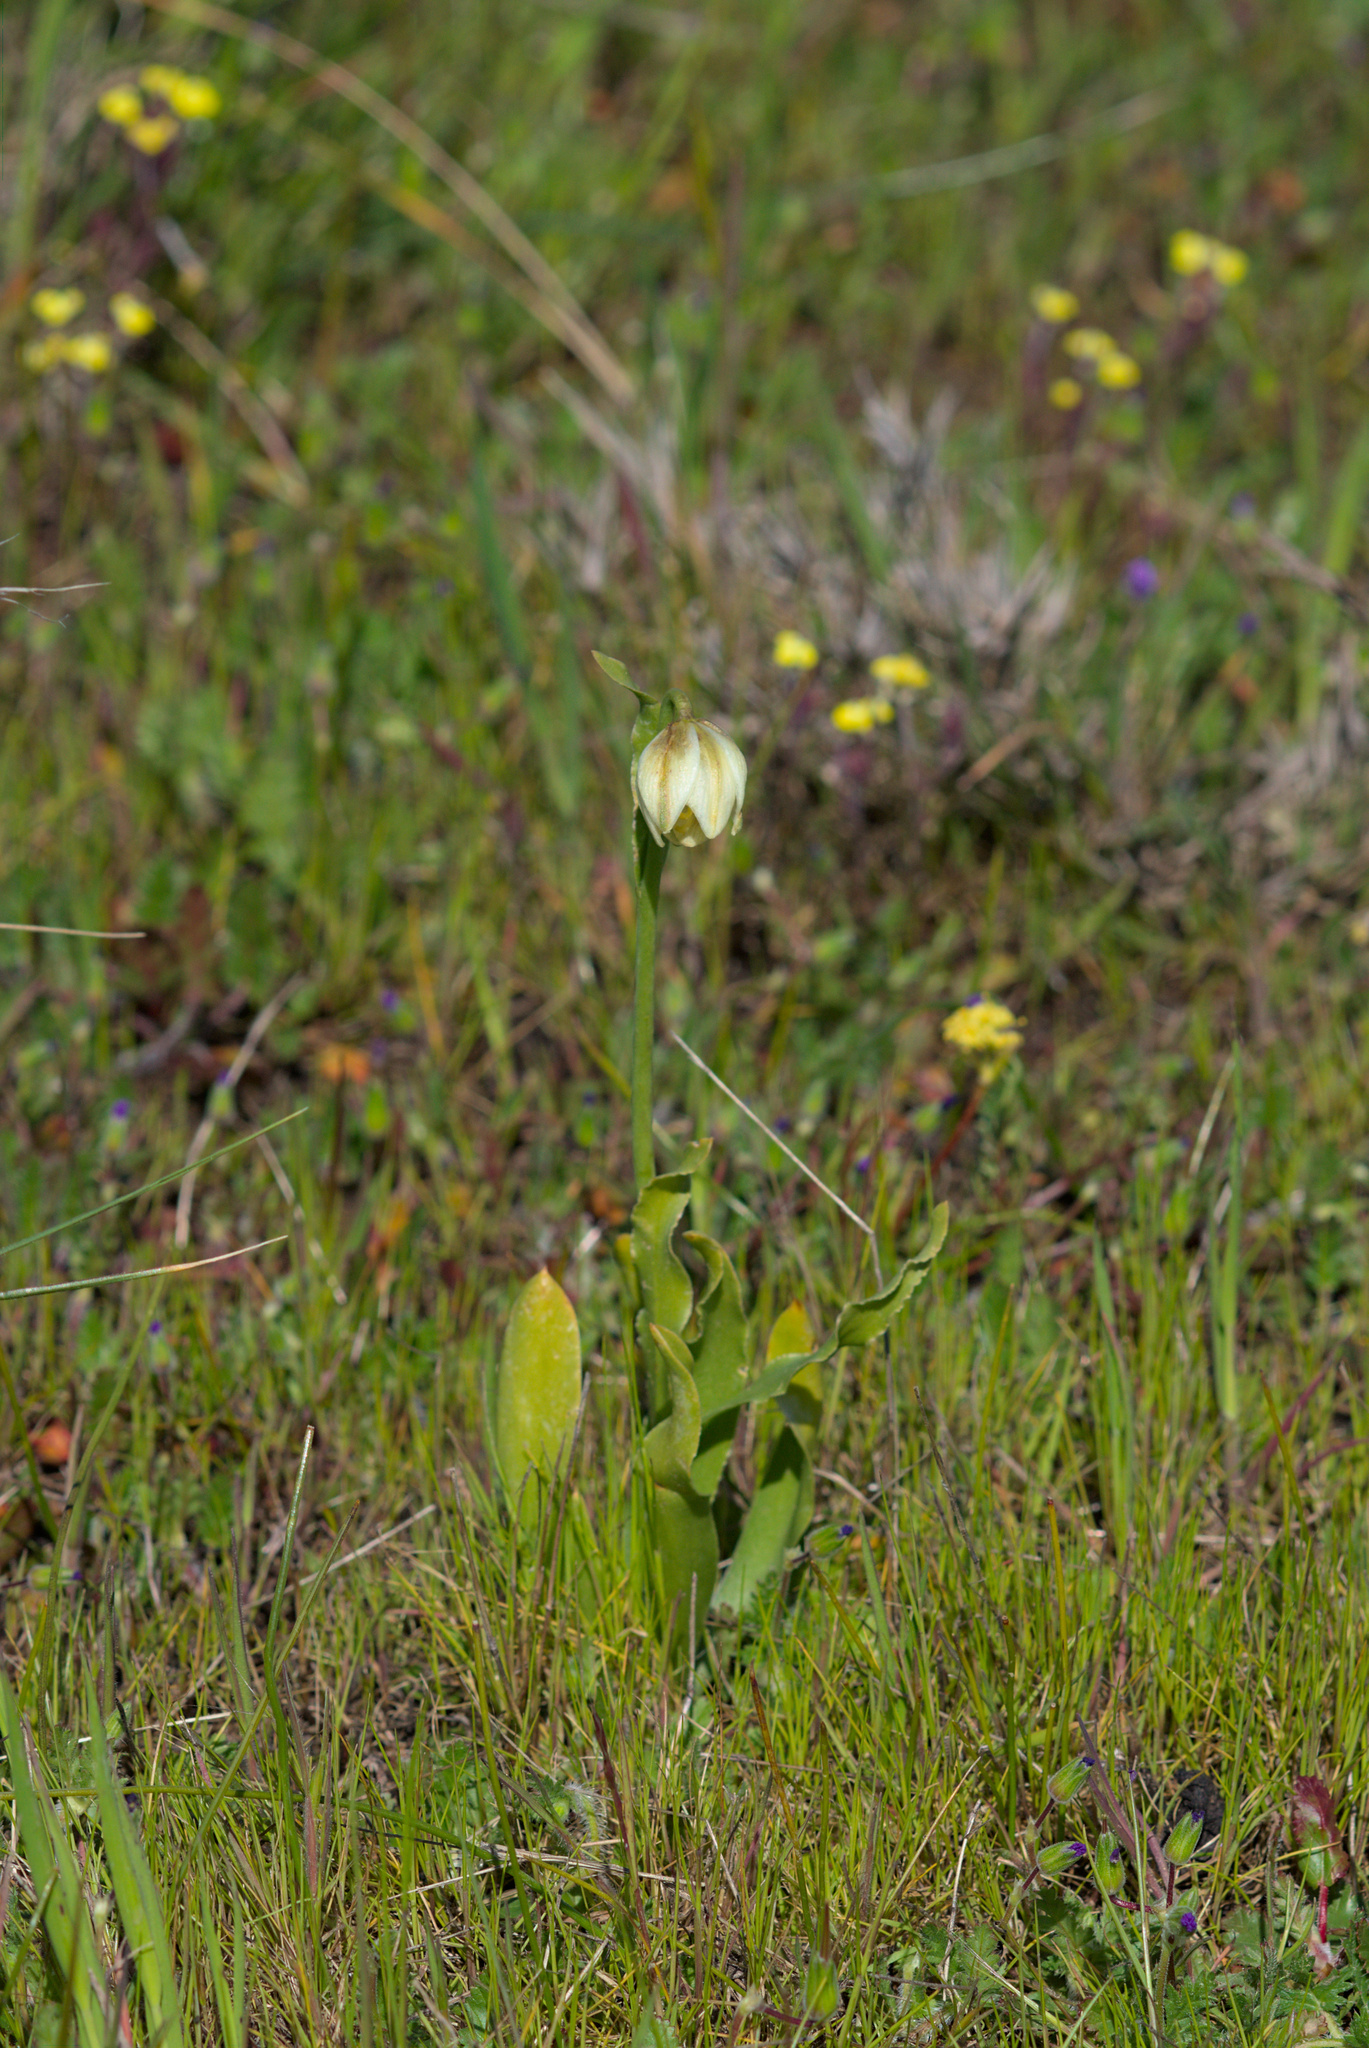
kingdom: Plantae
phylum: Tracheophyta
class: Liliopsida
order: Liliales
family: Liliaceae
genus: Fritillaria
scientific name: Fritillaria liliacea
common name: Fragrant fritillary
